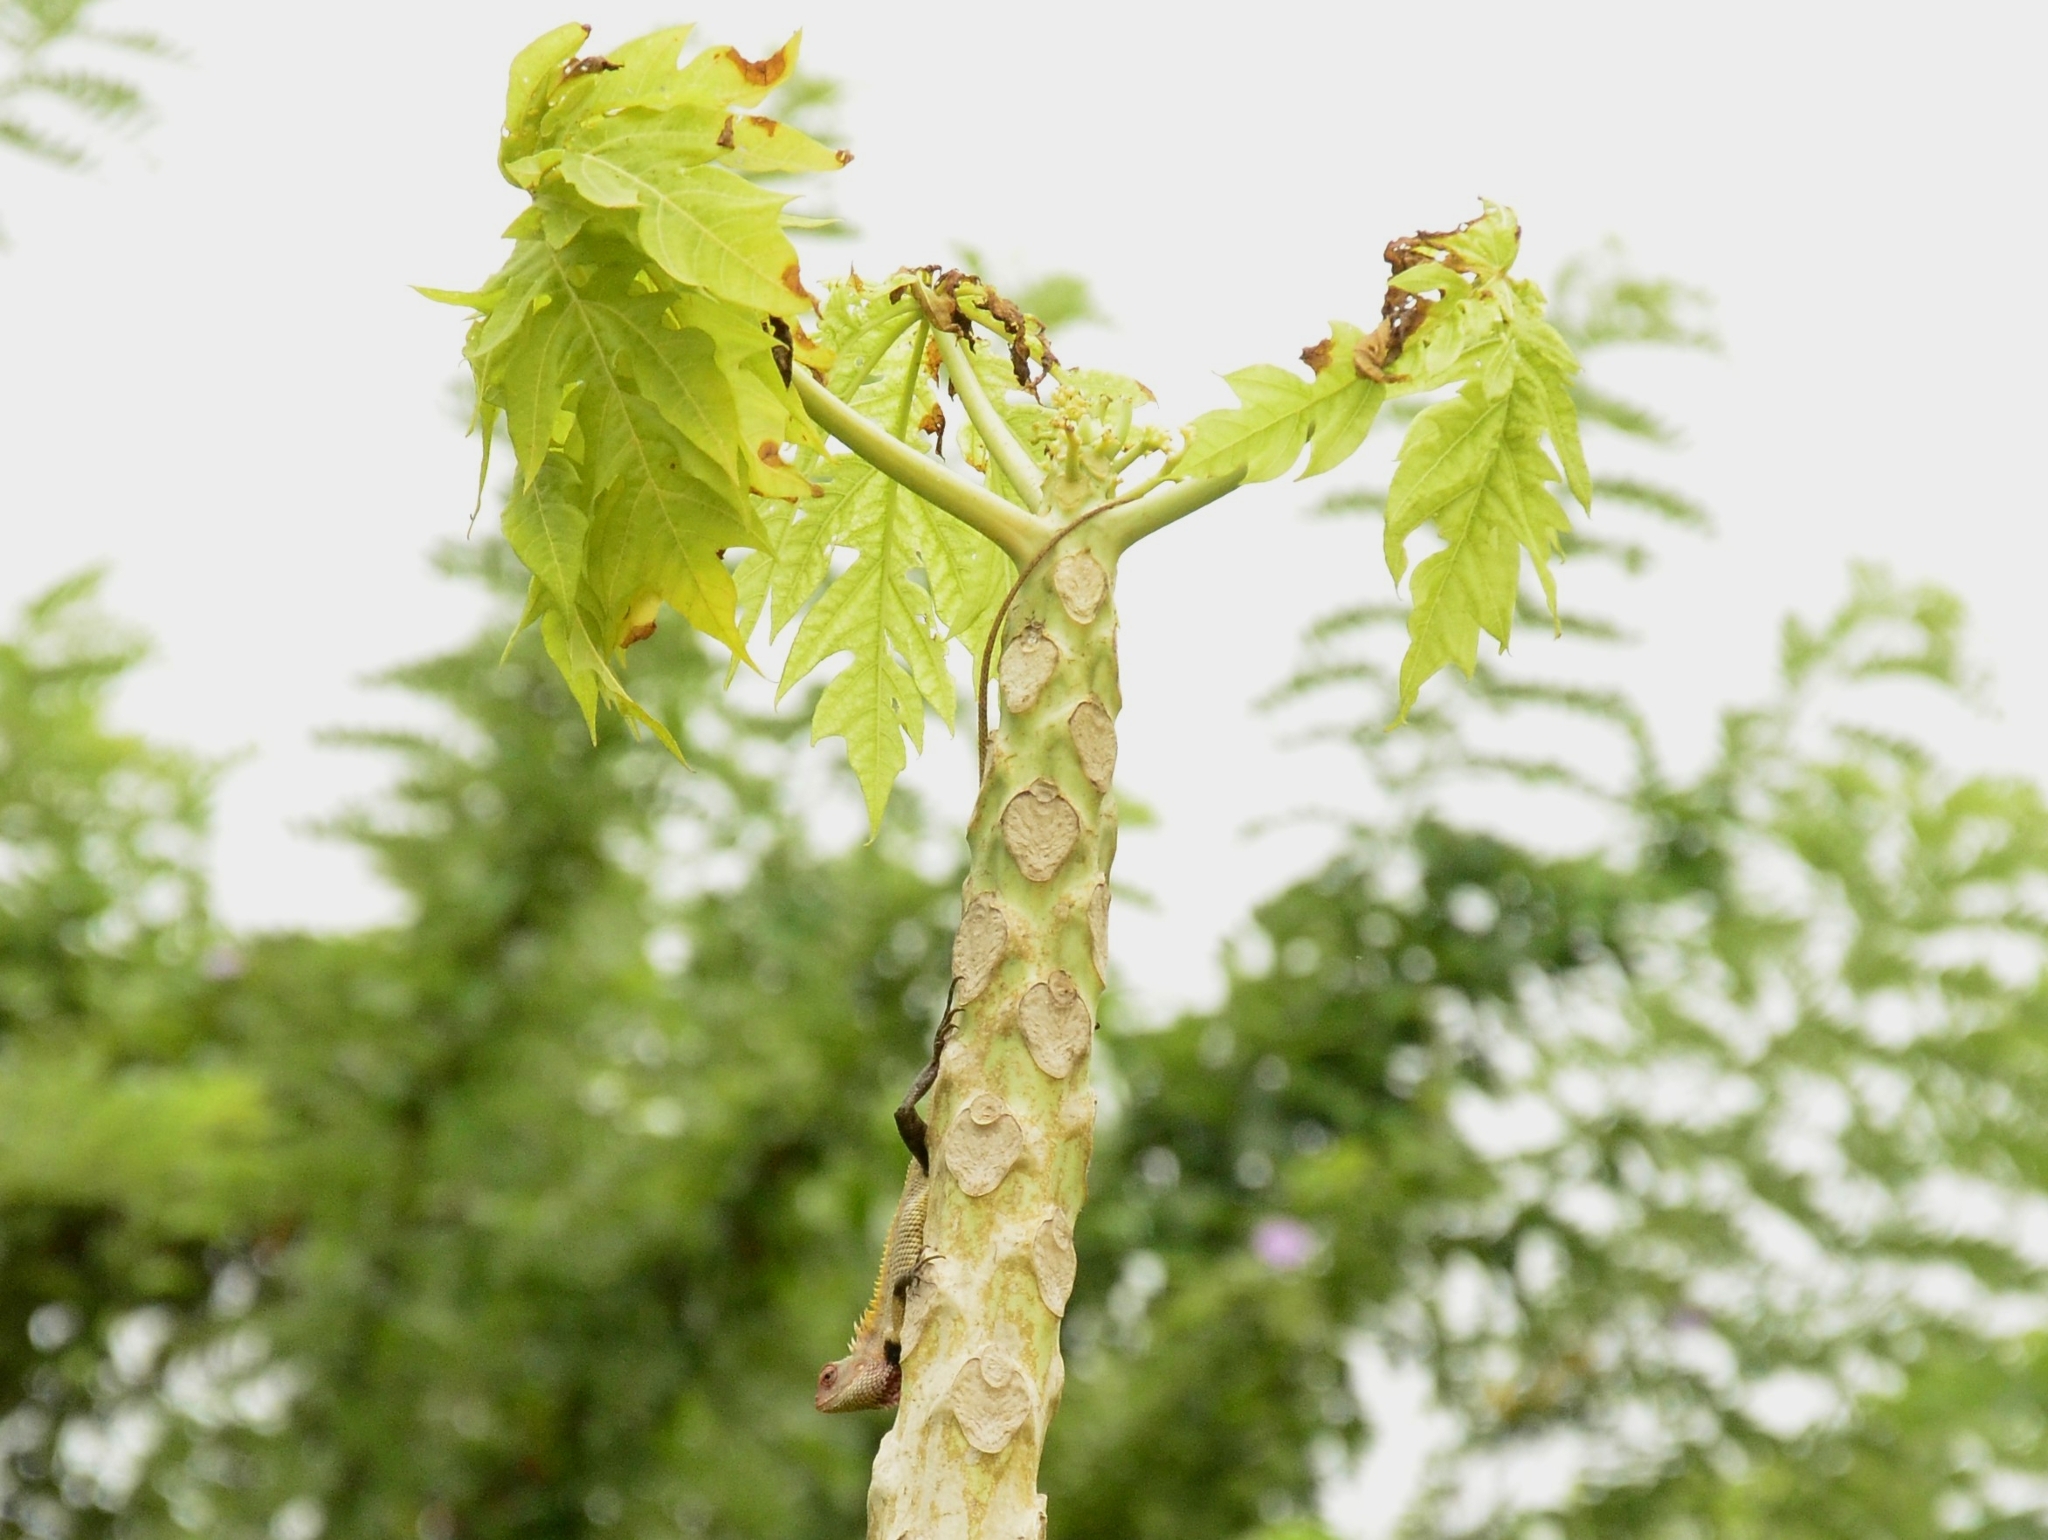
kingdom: Animalia
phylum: Chordata
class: Squamata
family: Agamidae
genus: Calotes
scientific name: Calotes versicolor
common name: Oriental garden lizard
